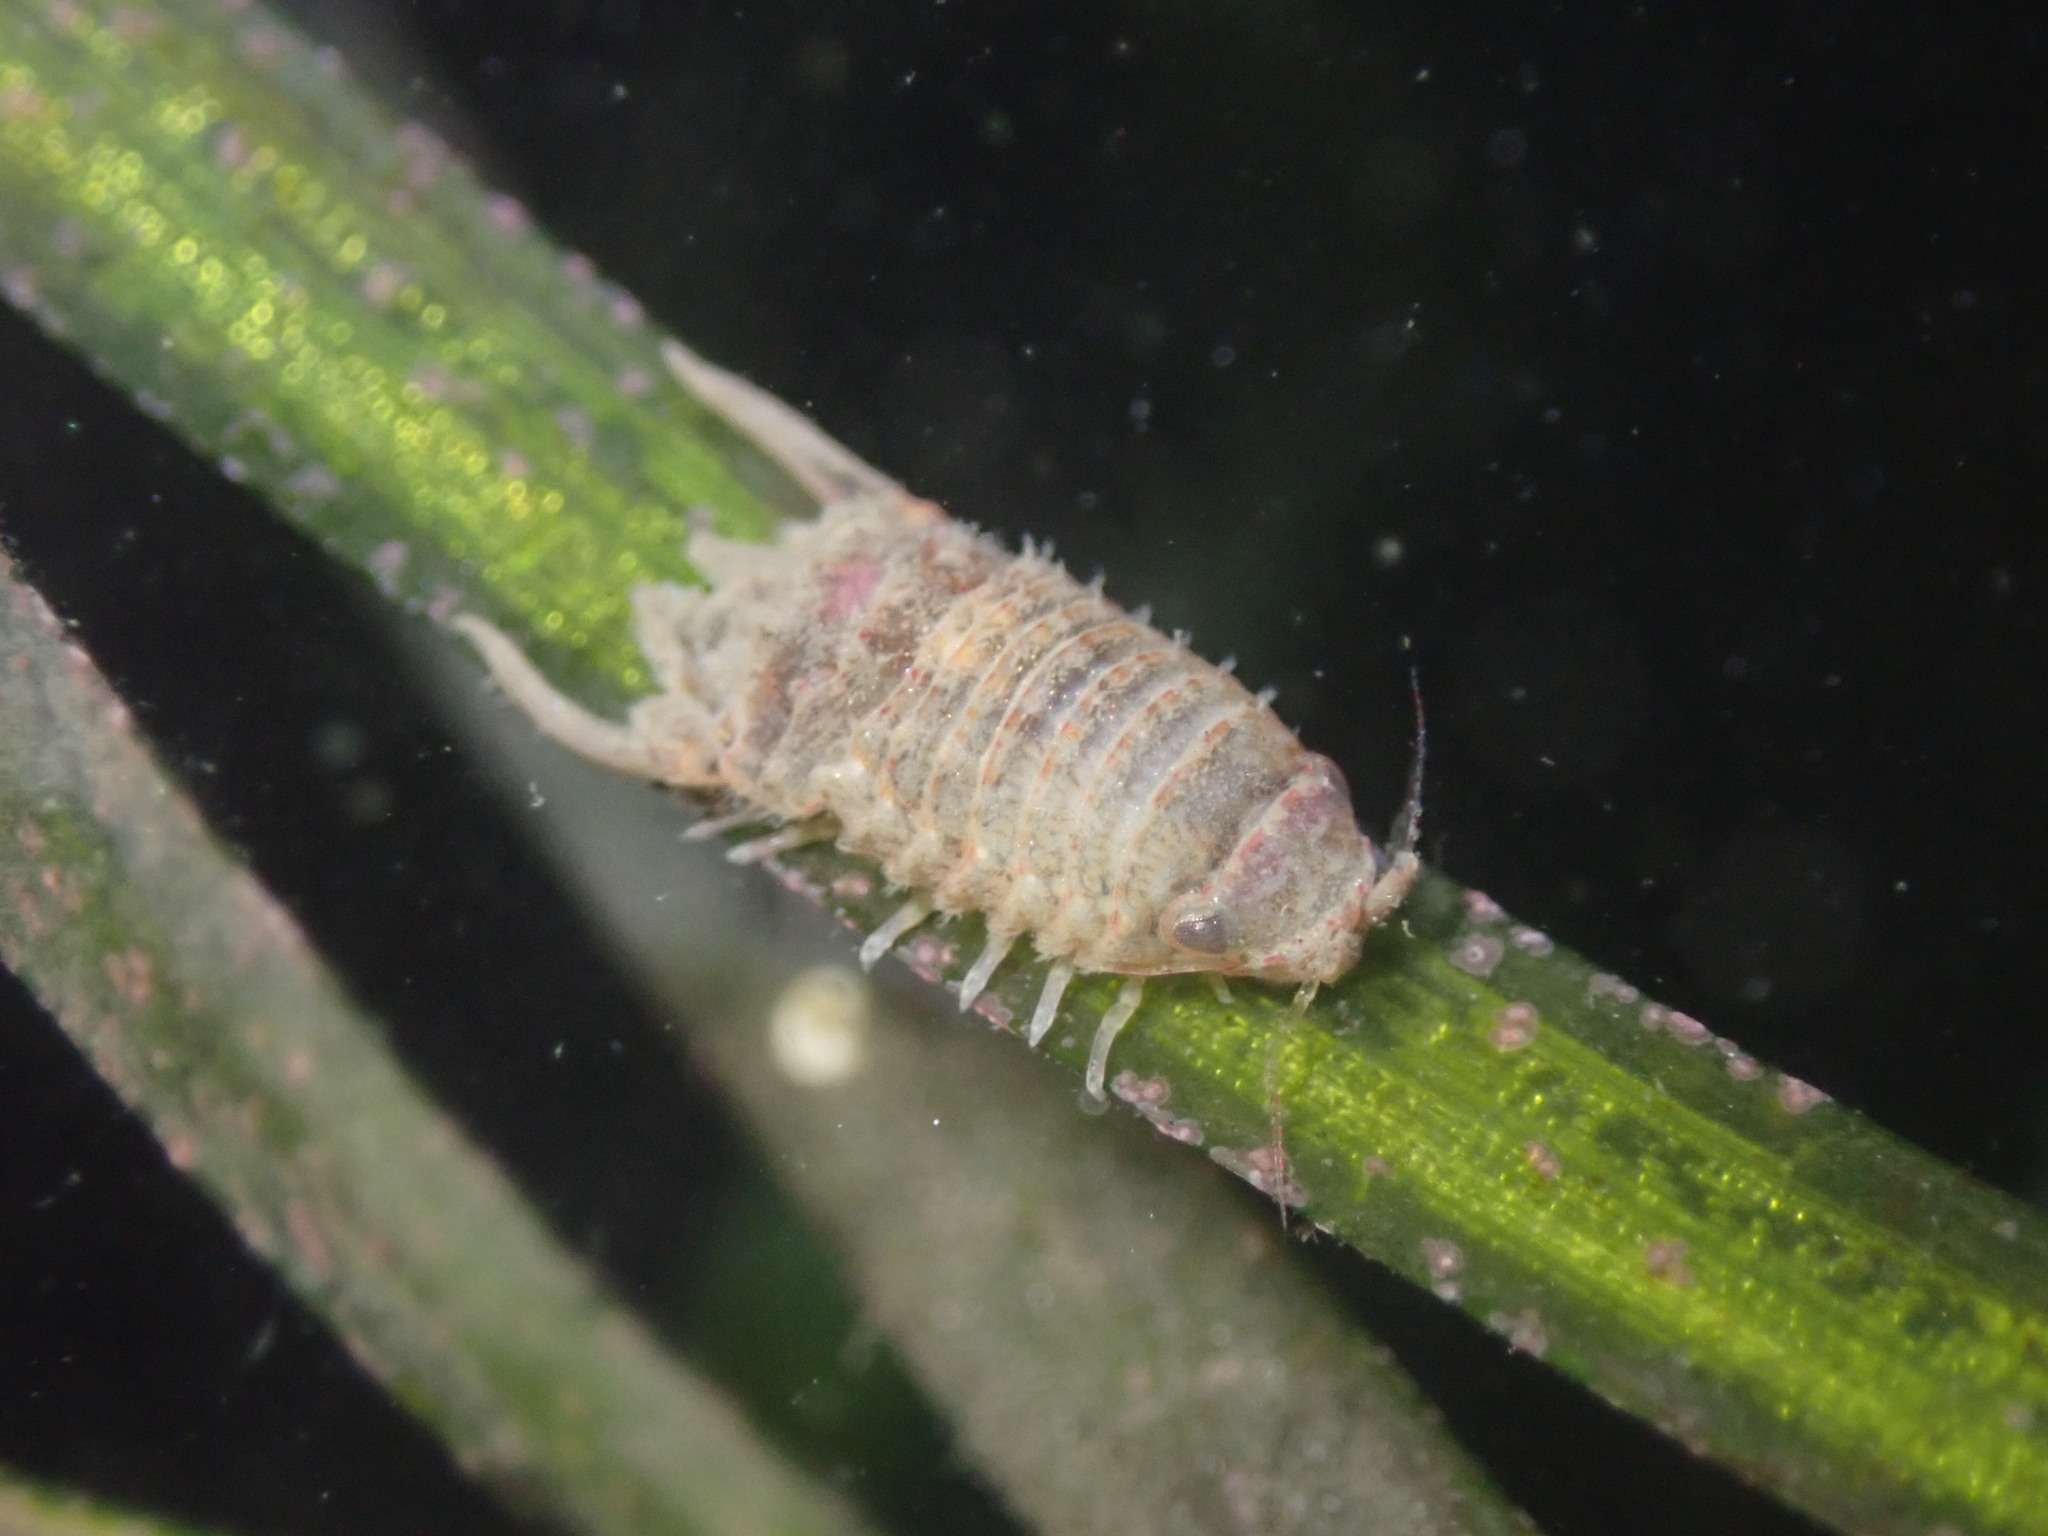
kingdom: Animalia
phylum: Arthropoda
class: Malacostraca
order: Isopoda
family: Sphaeromatidae
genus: Paracerceis
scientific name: Paracerceis sculpta
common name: Marine isopod
